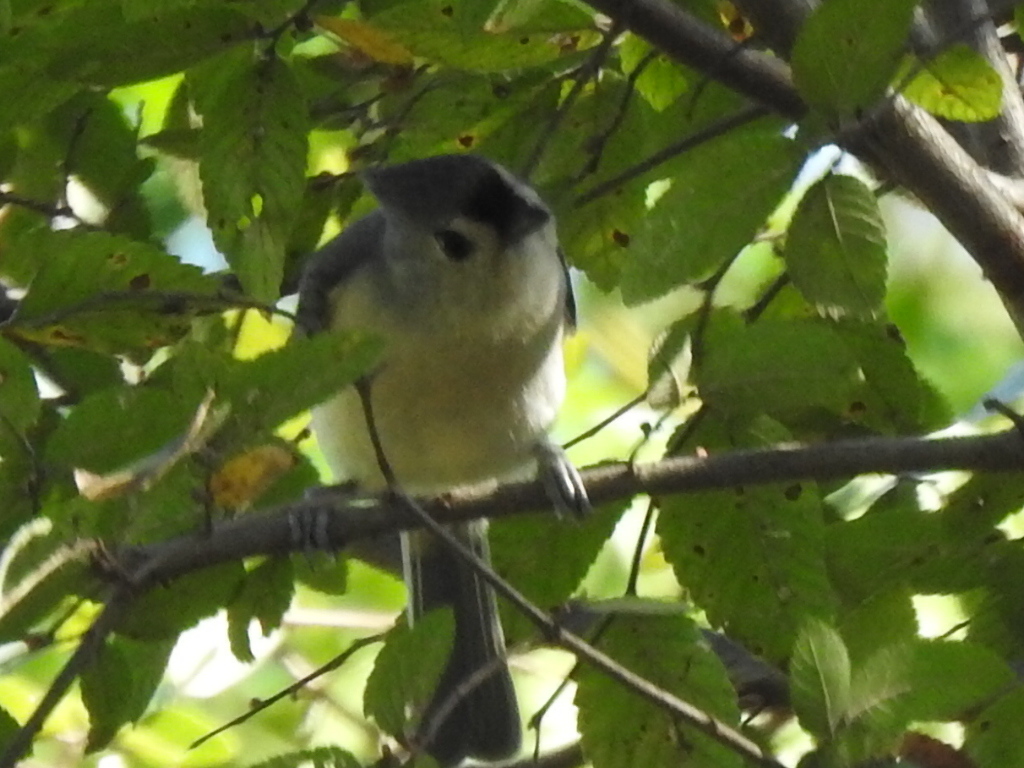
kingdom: Animalia
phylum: Chordata
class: Aves
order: Passeriformes
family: Paridae
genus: Baeolophus
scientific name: Baeolophus bicolor
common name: Tufted titmouse
